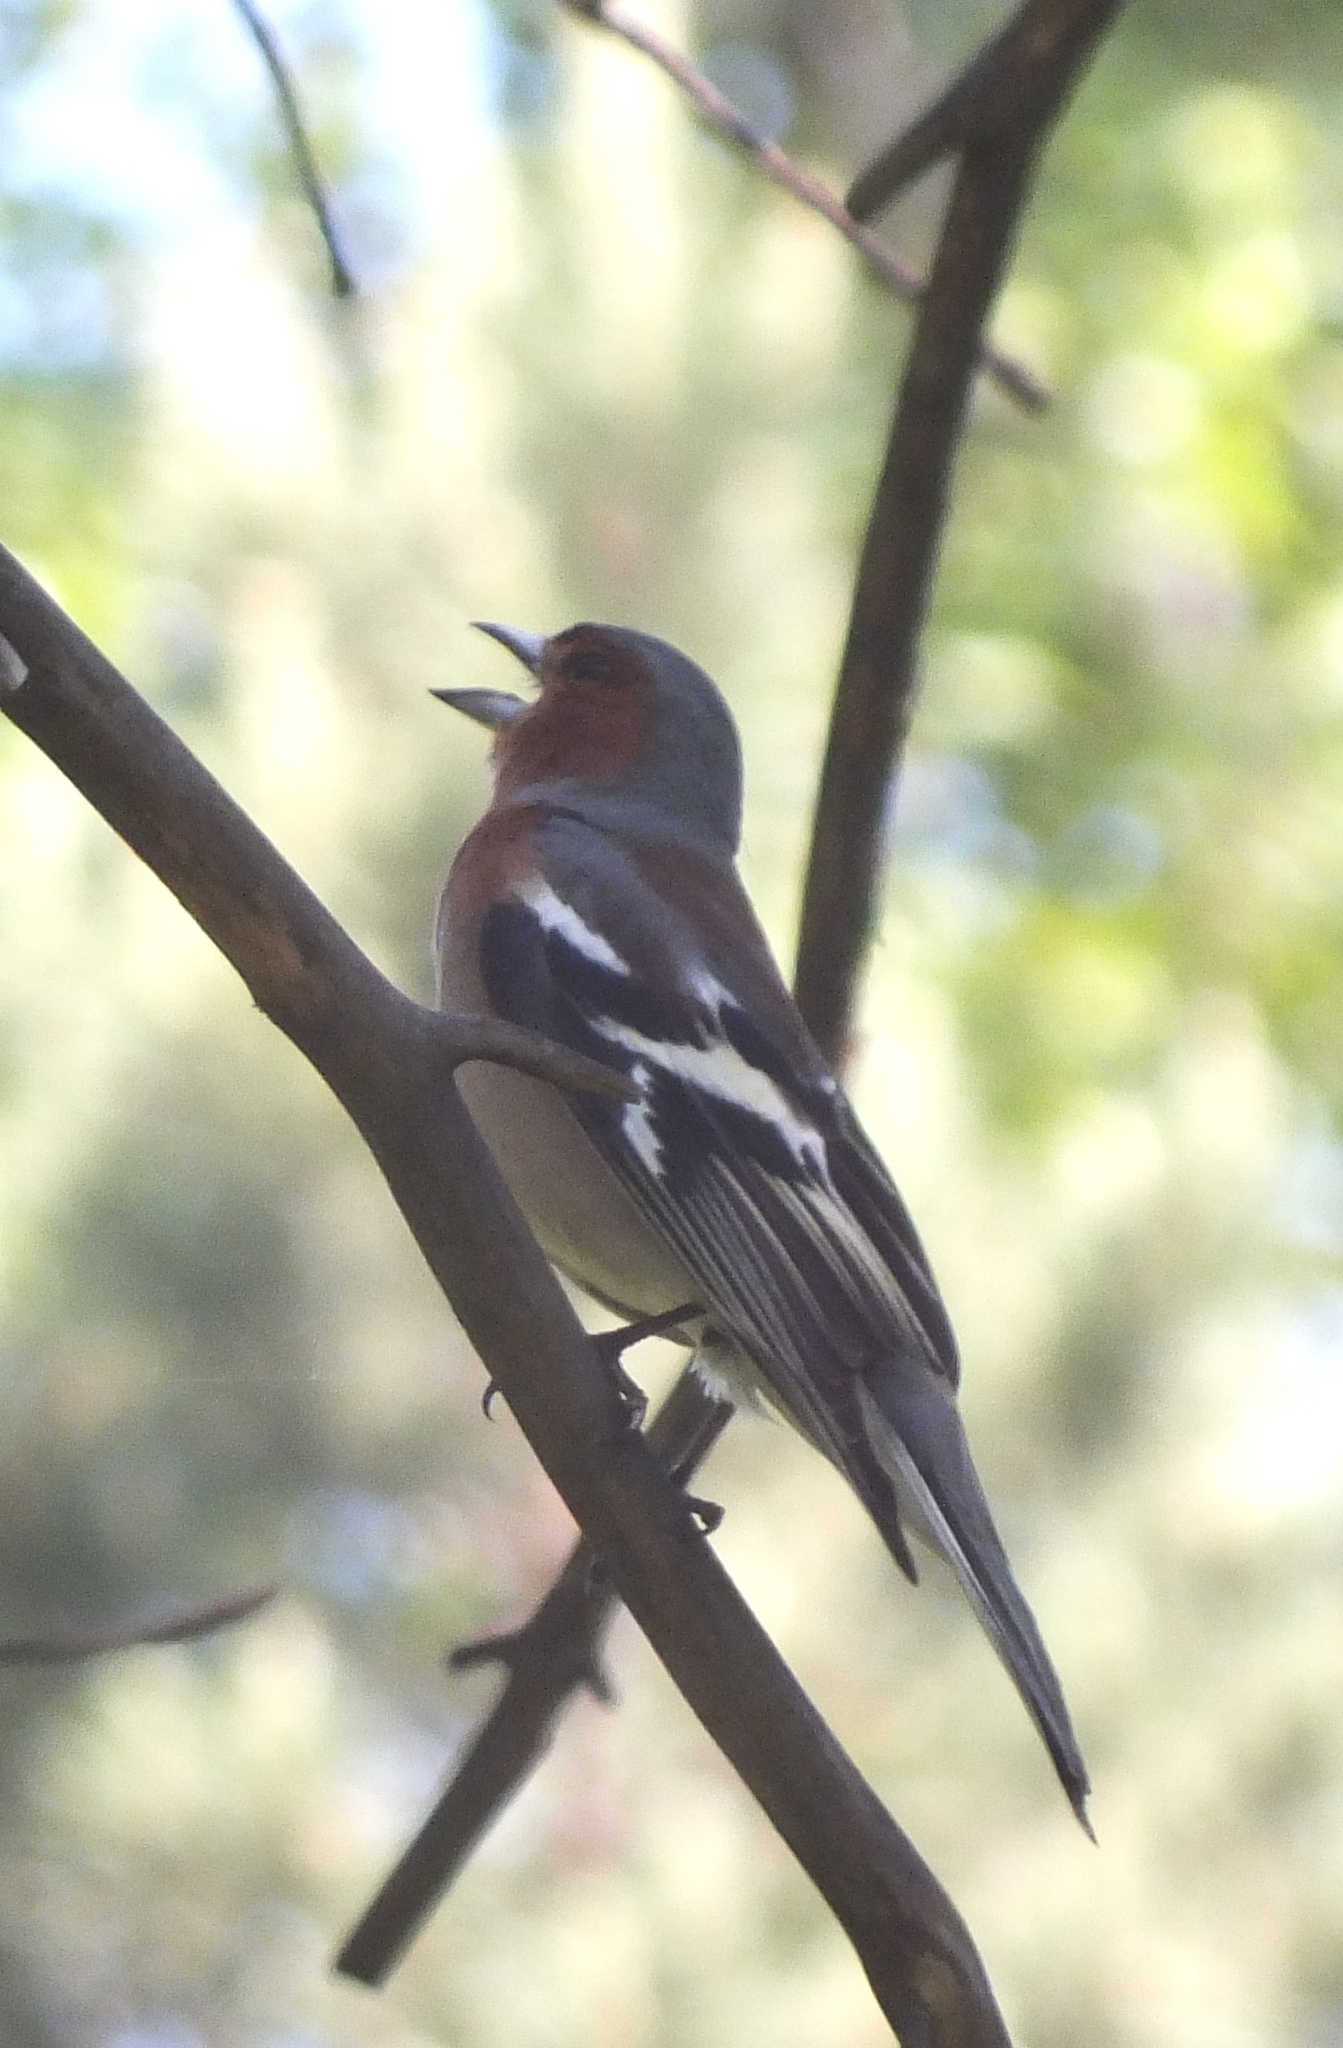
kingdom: Animalia
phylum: Chordata
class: Aves
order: Passeriformes
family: Fringillidae
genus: Fringilla
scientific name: Fringilla coelebs
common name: Common chaffinch
